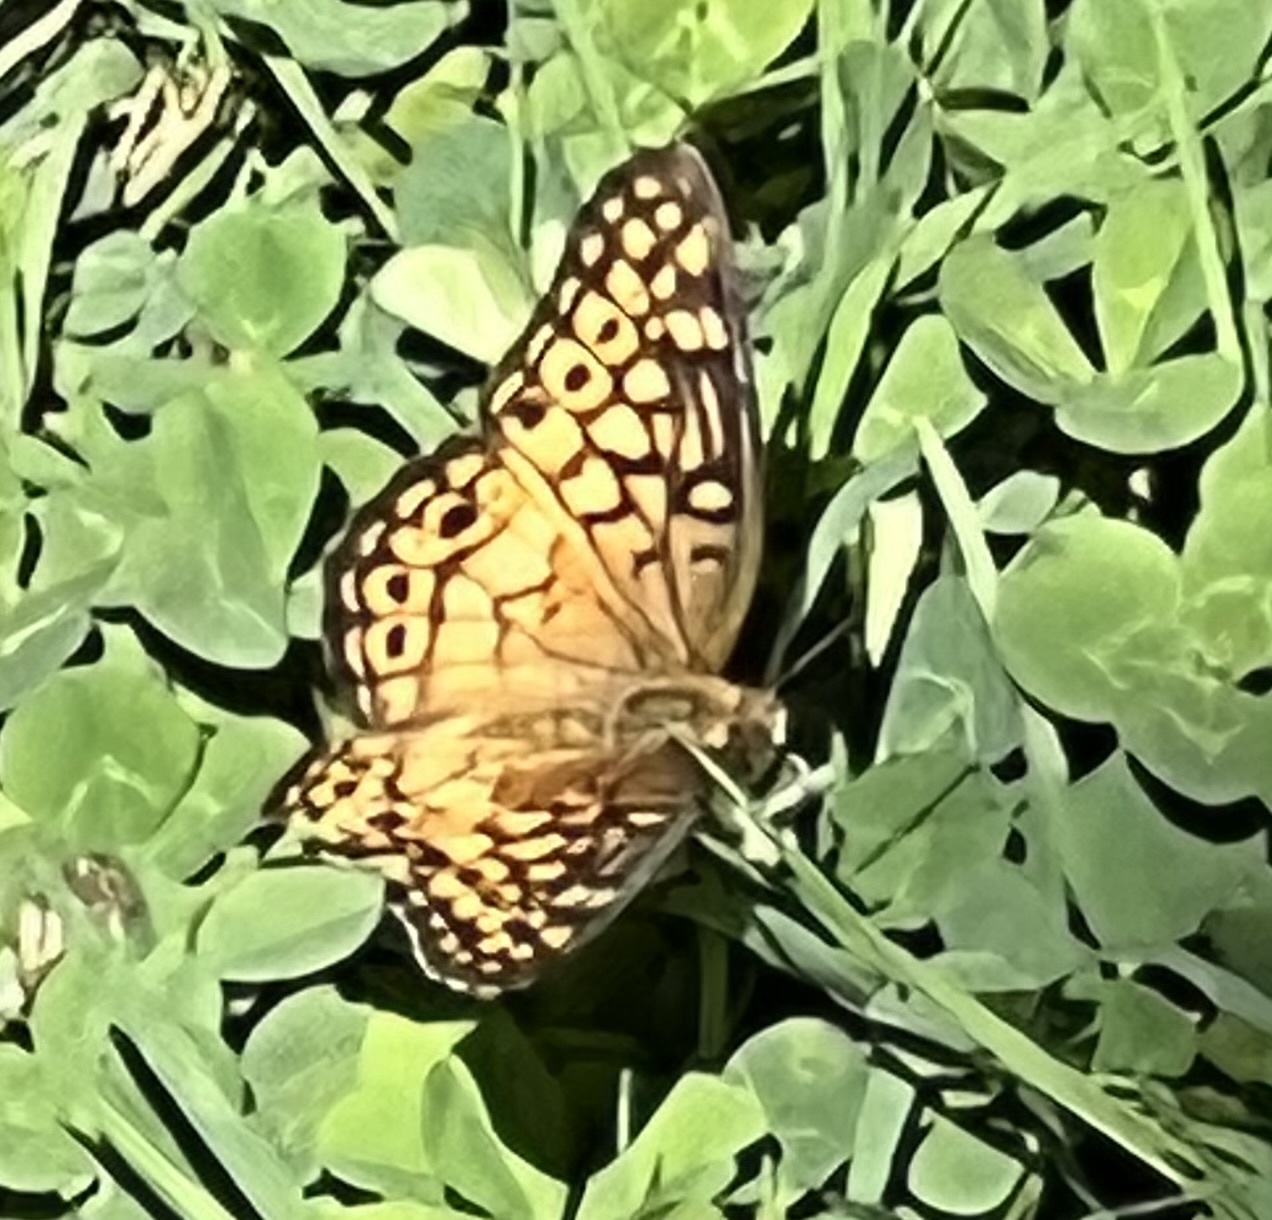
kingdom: Animalia
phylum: Arthropoda
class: Insecta
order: Lepidoptera
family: Nymphalidae
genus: Euptoieta
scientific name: Euptoieta claudia
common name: Variegated fritillary
